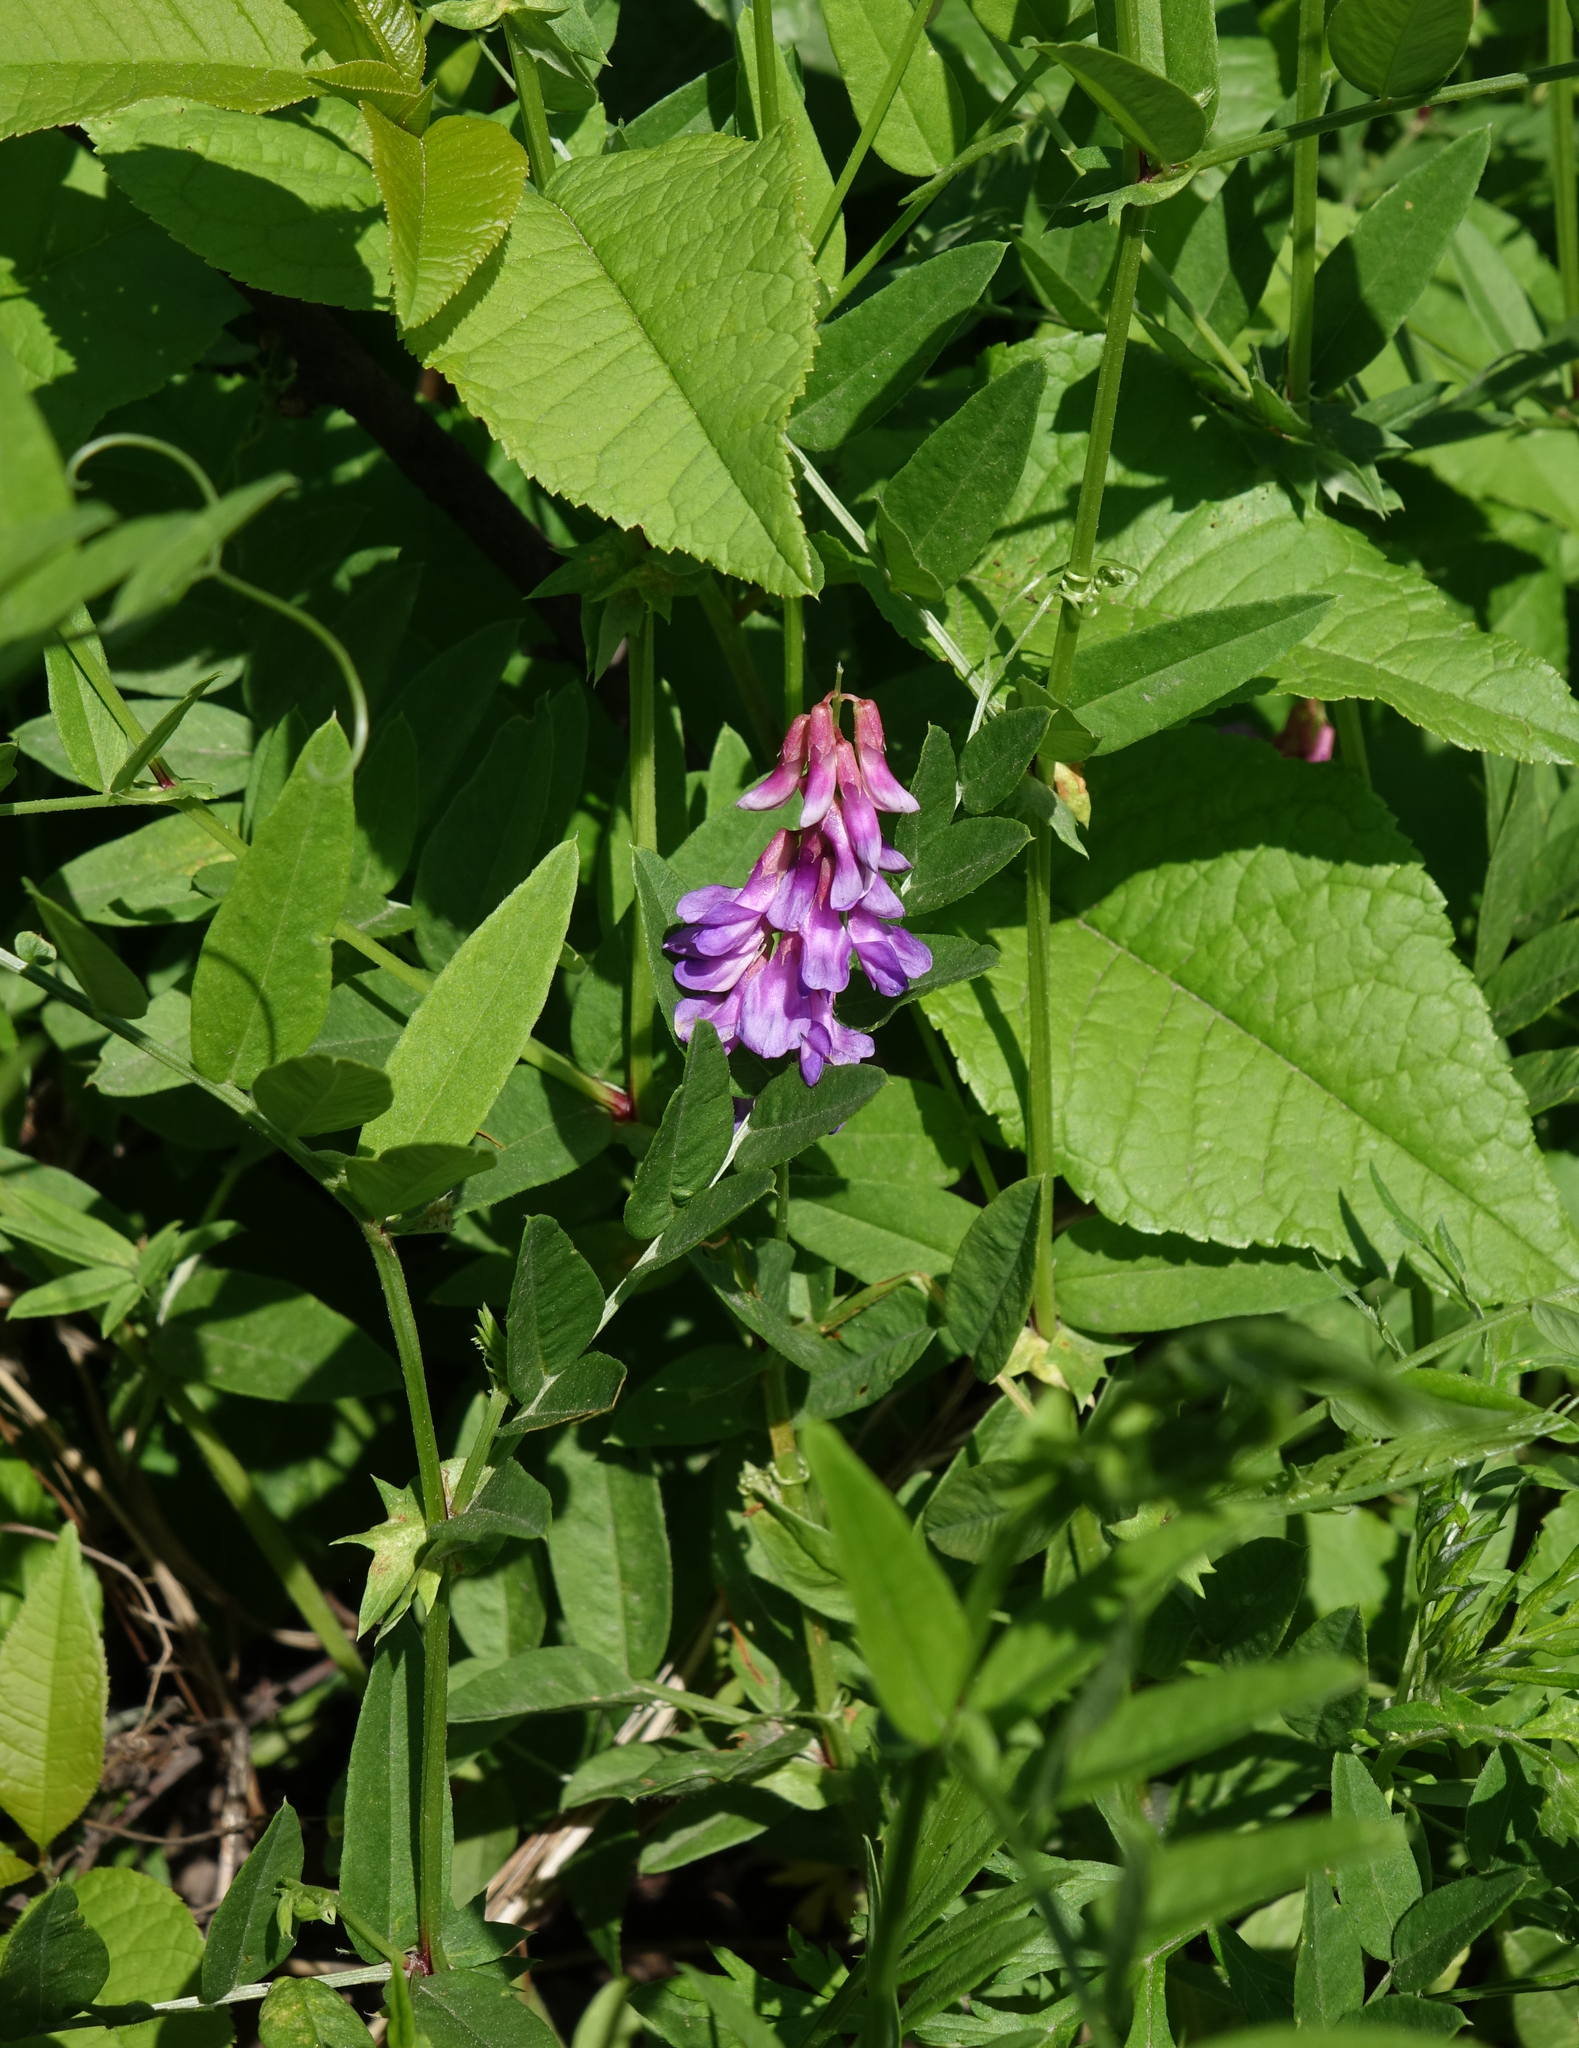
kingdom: Plantae
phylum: Tracheophyta
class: Magnoliopsida
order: Fabales
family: Fabaceae
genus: Vicia
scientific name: Vicia amoena
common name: Cheder ebs
